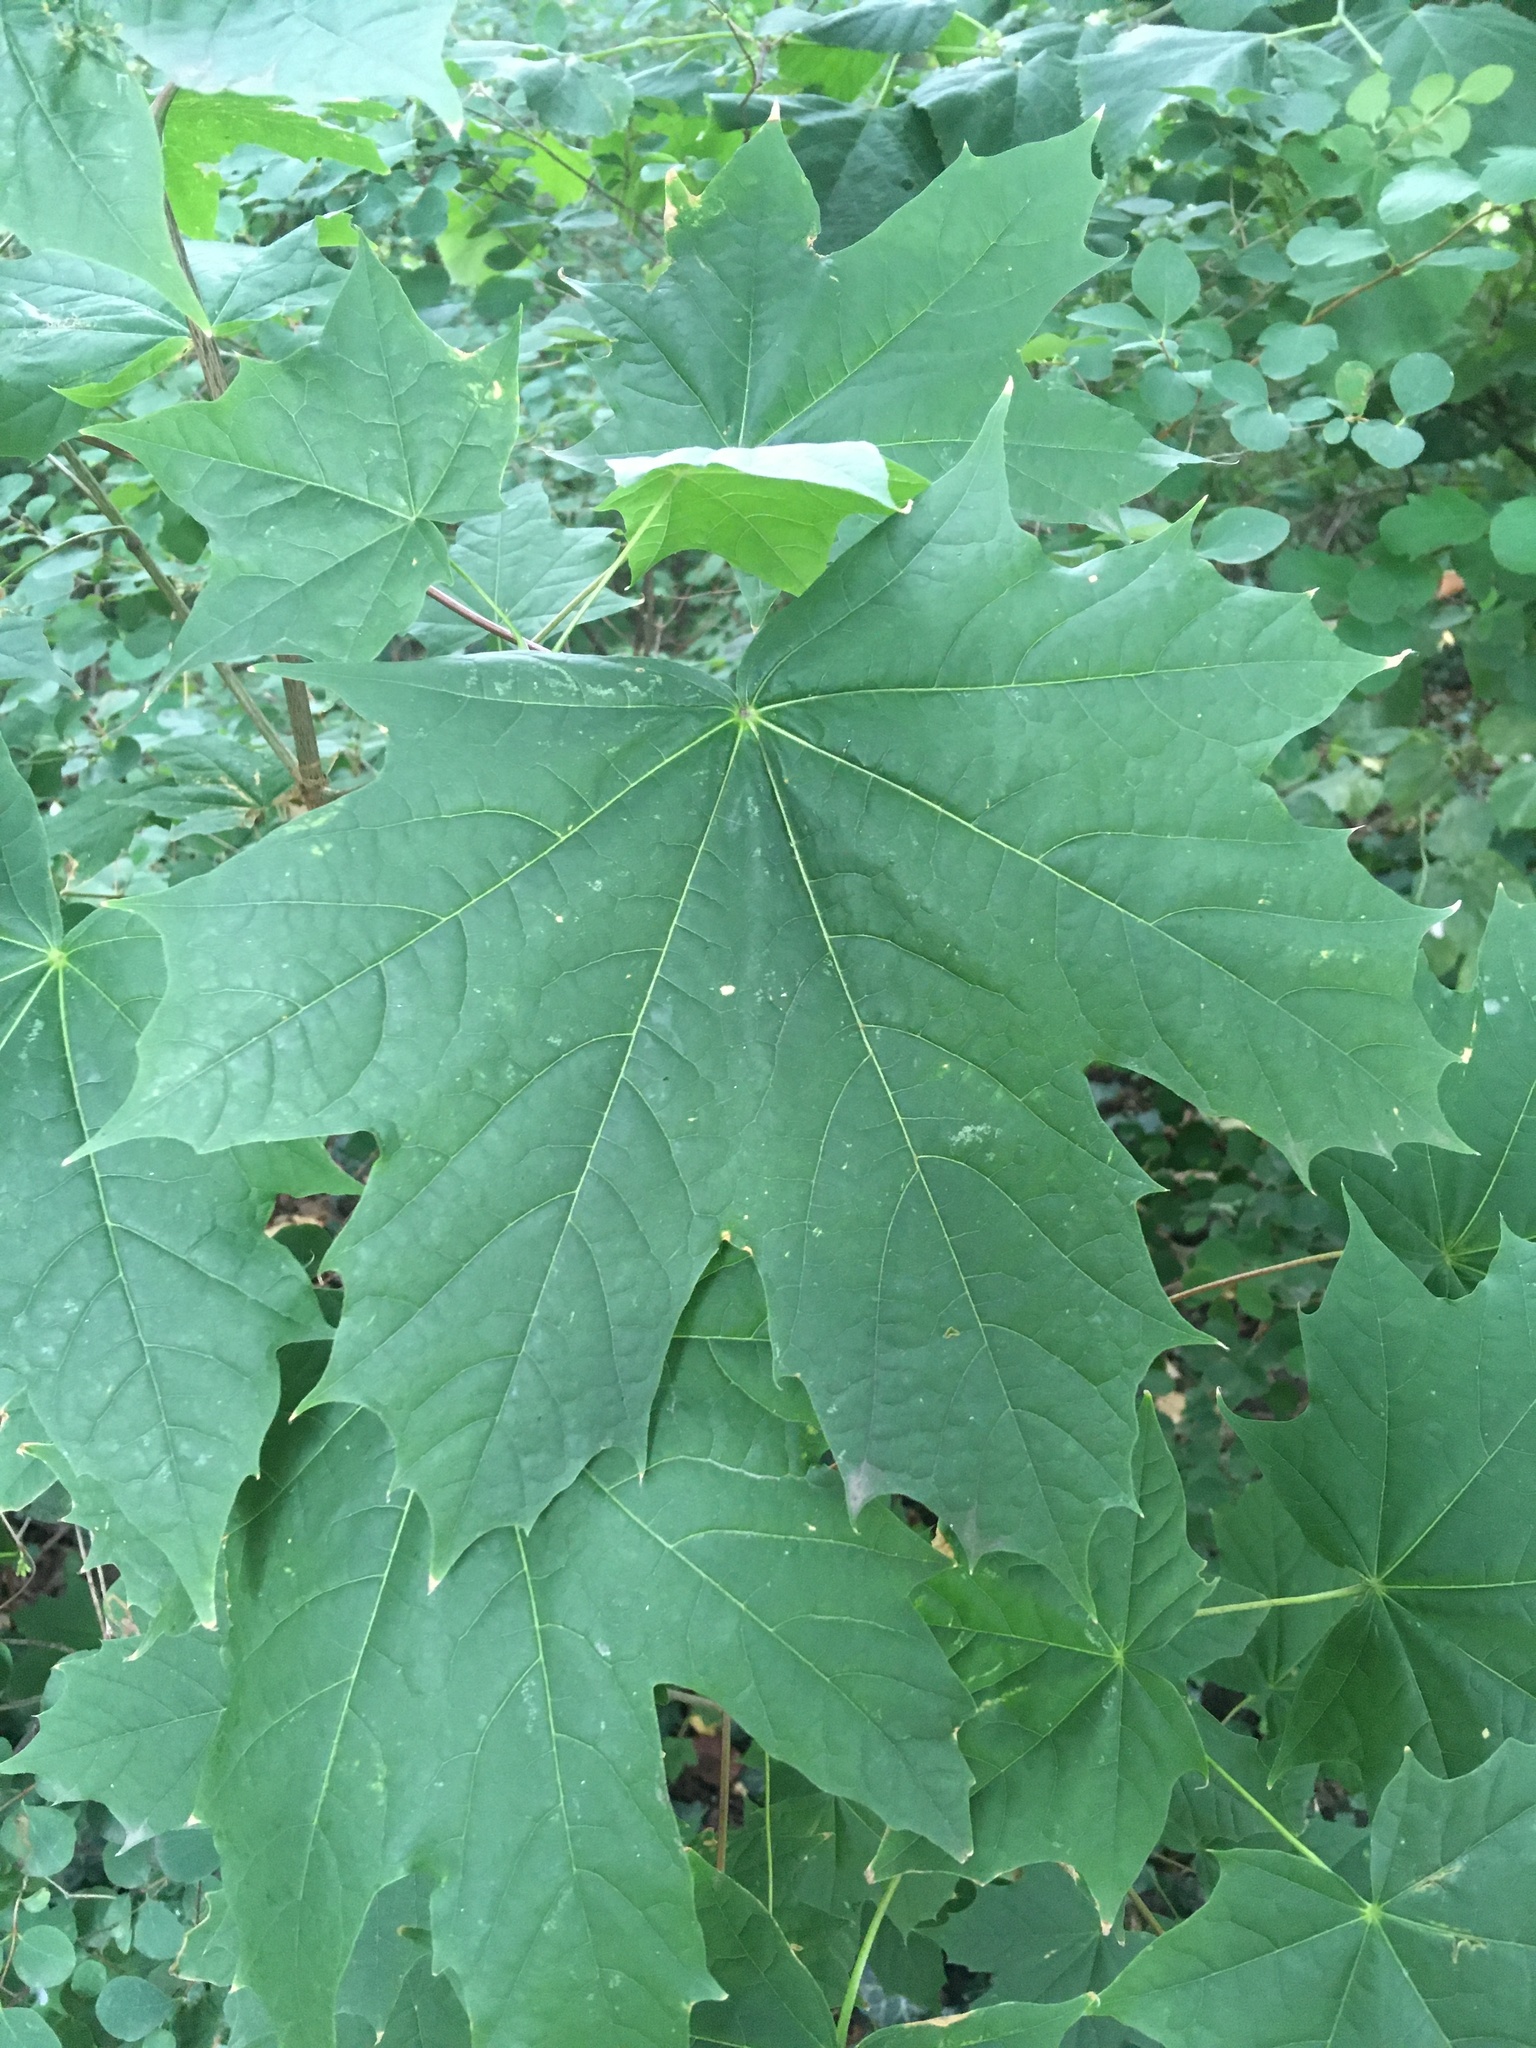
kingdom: Plantae
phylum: Tracheophyta
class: Magnoliopsida
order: Sapindales
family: Sapindaceae
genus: Acer
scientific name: Acer platanoides
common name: Norway maple
